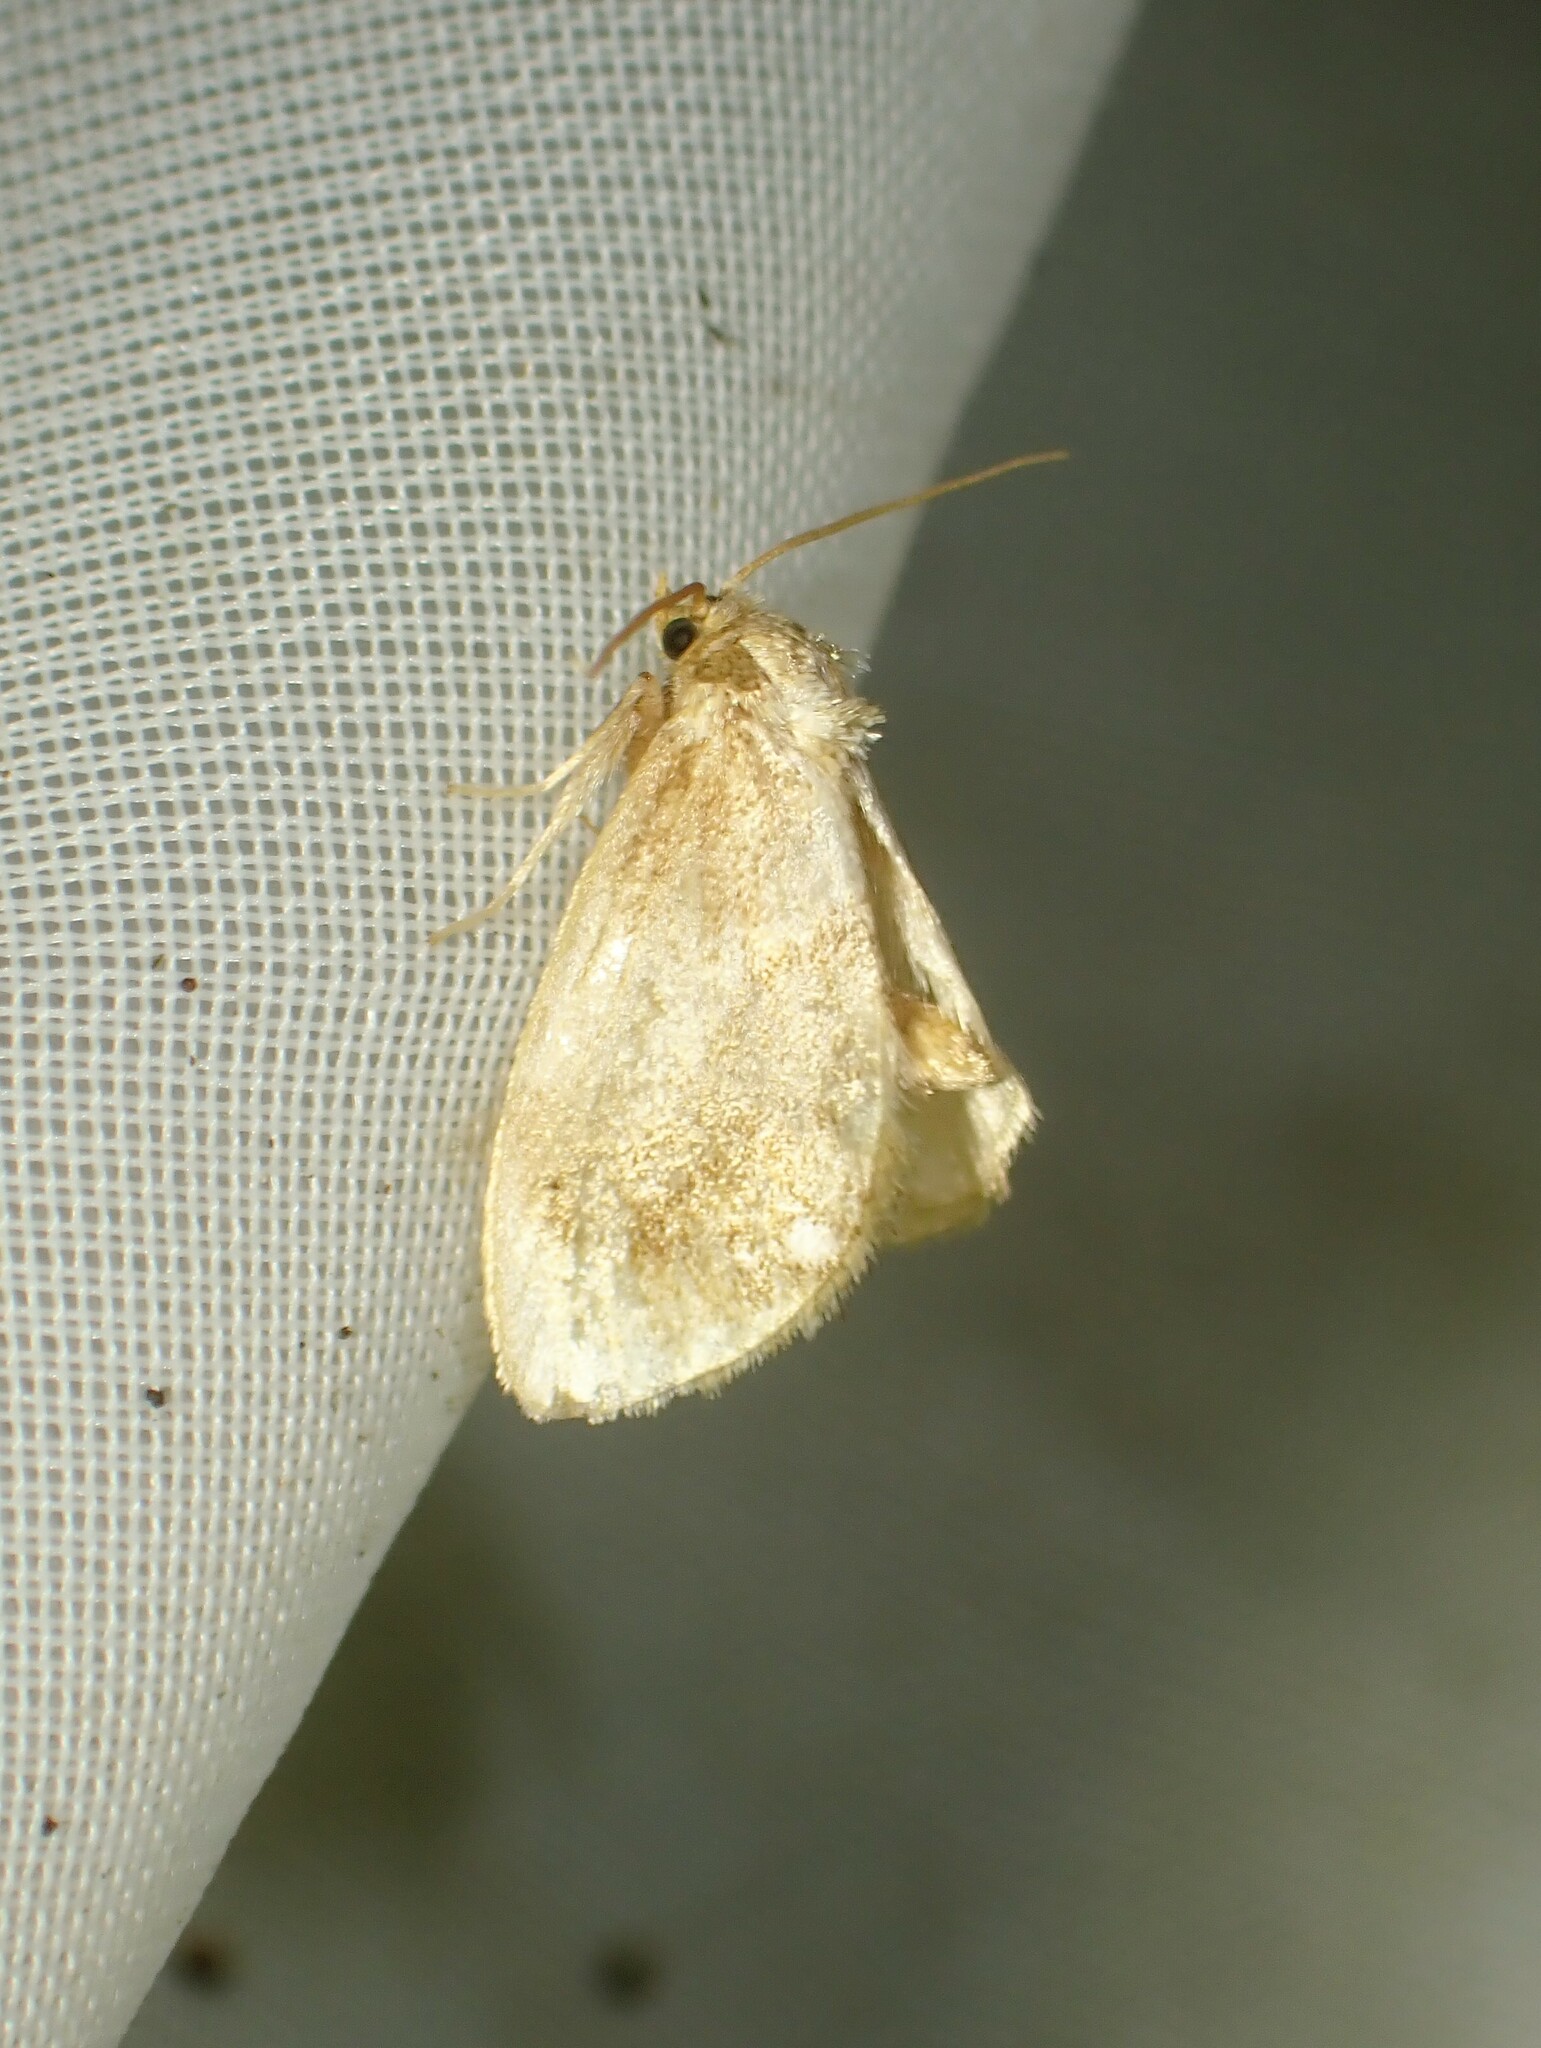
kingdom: Animalia
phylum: Arthropoda
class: Insecta
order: Lepidoptera
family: Limacodidae
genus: Packardia
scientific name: Packardia geminata
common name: Jeweled tailed slug moth
